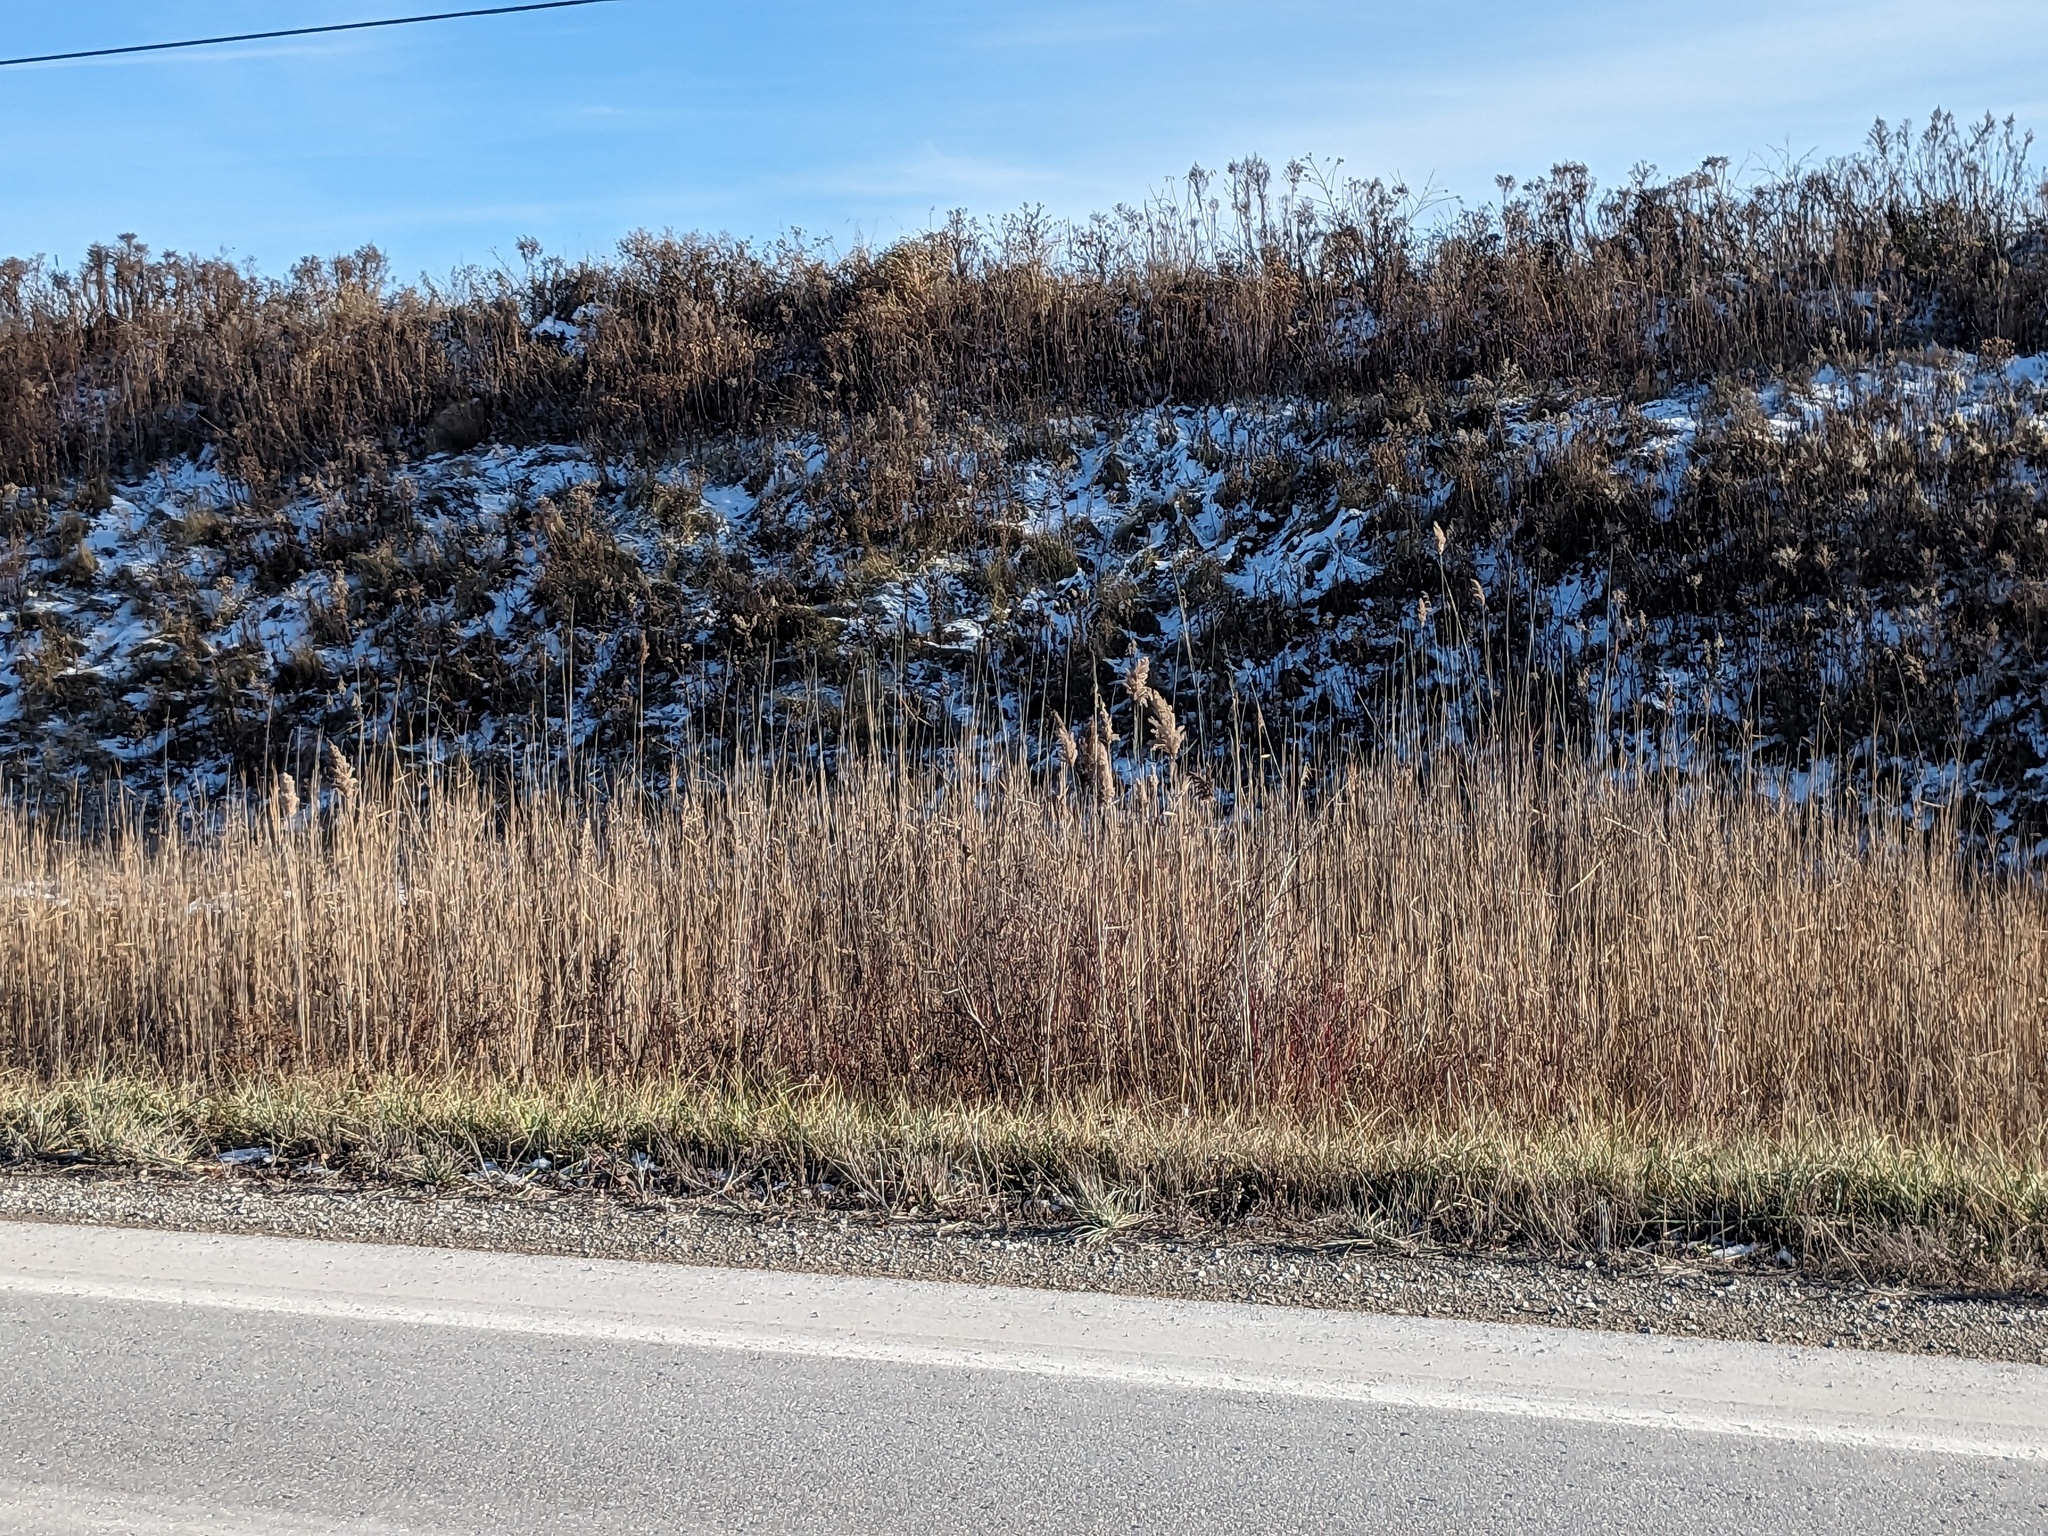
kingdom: Plantae
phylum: Tracheophyta
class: Liliopsida
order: Poales
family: Poaceae
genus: Phragmites
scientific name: Phragmites australis
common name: Common reed
